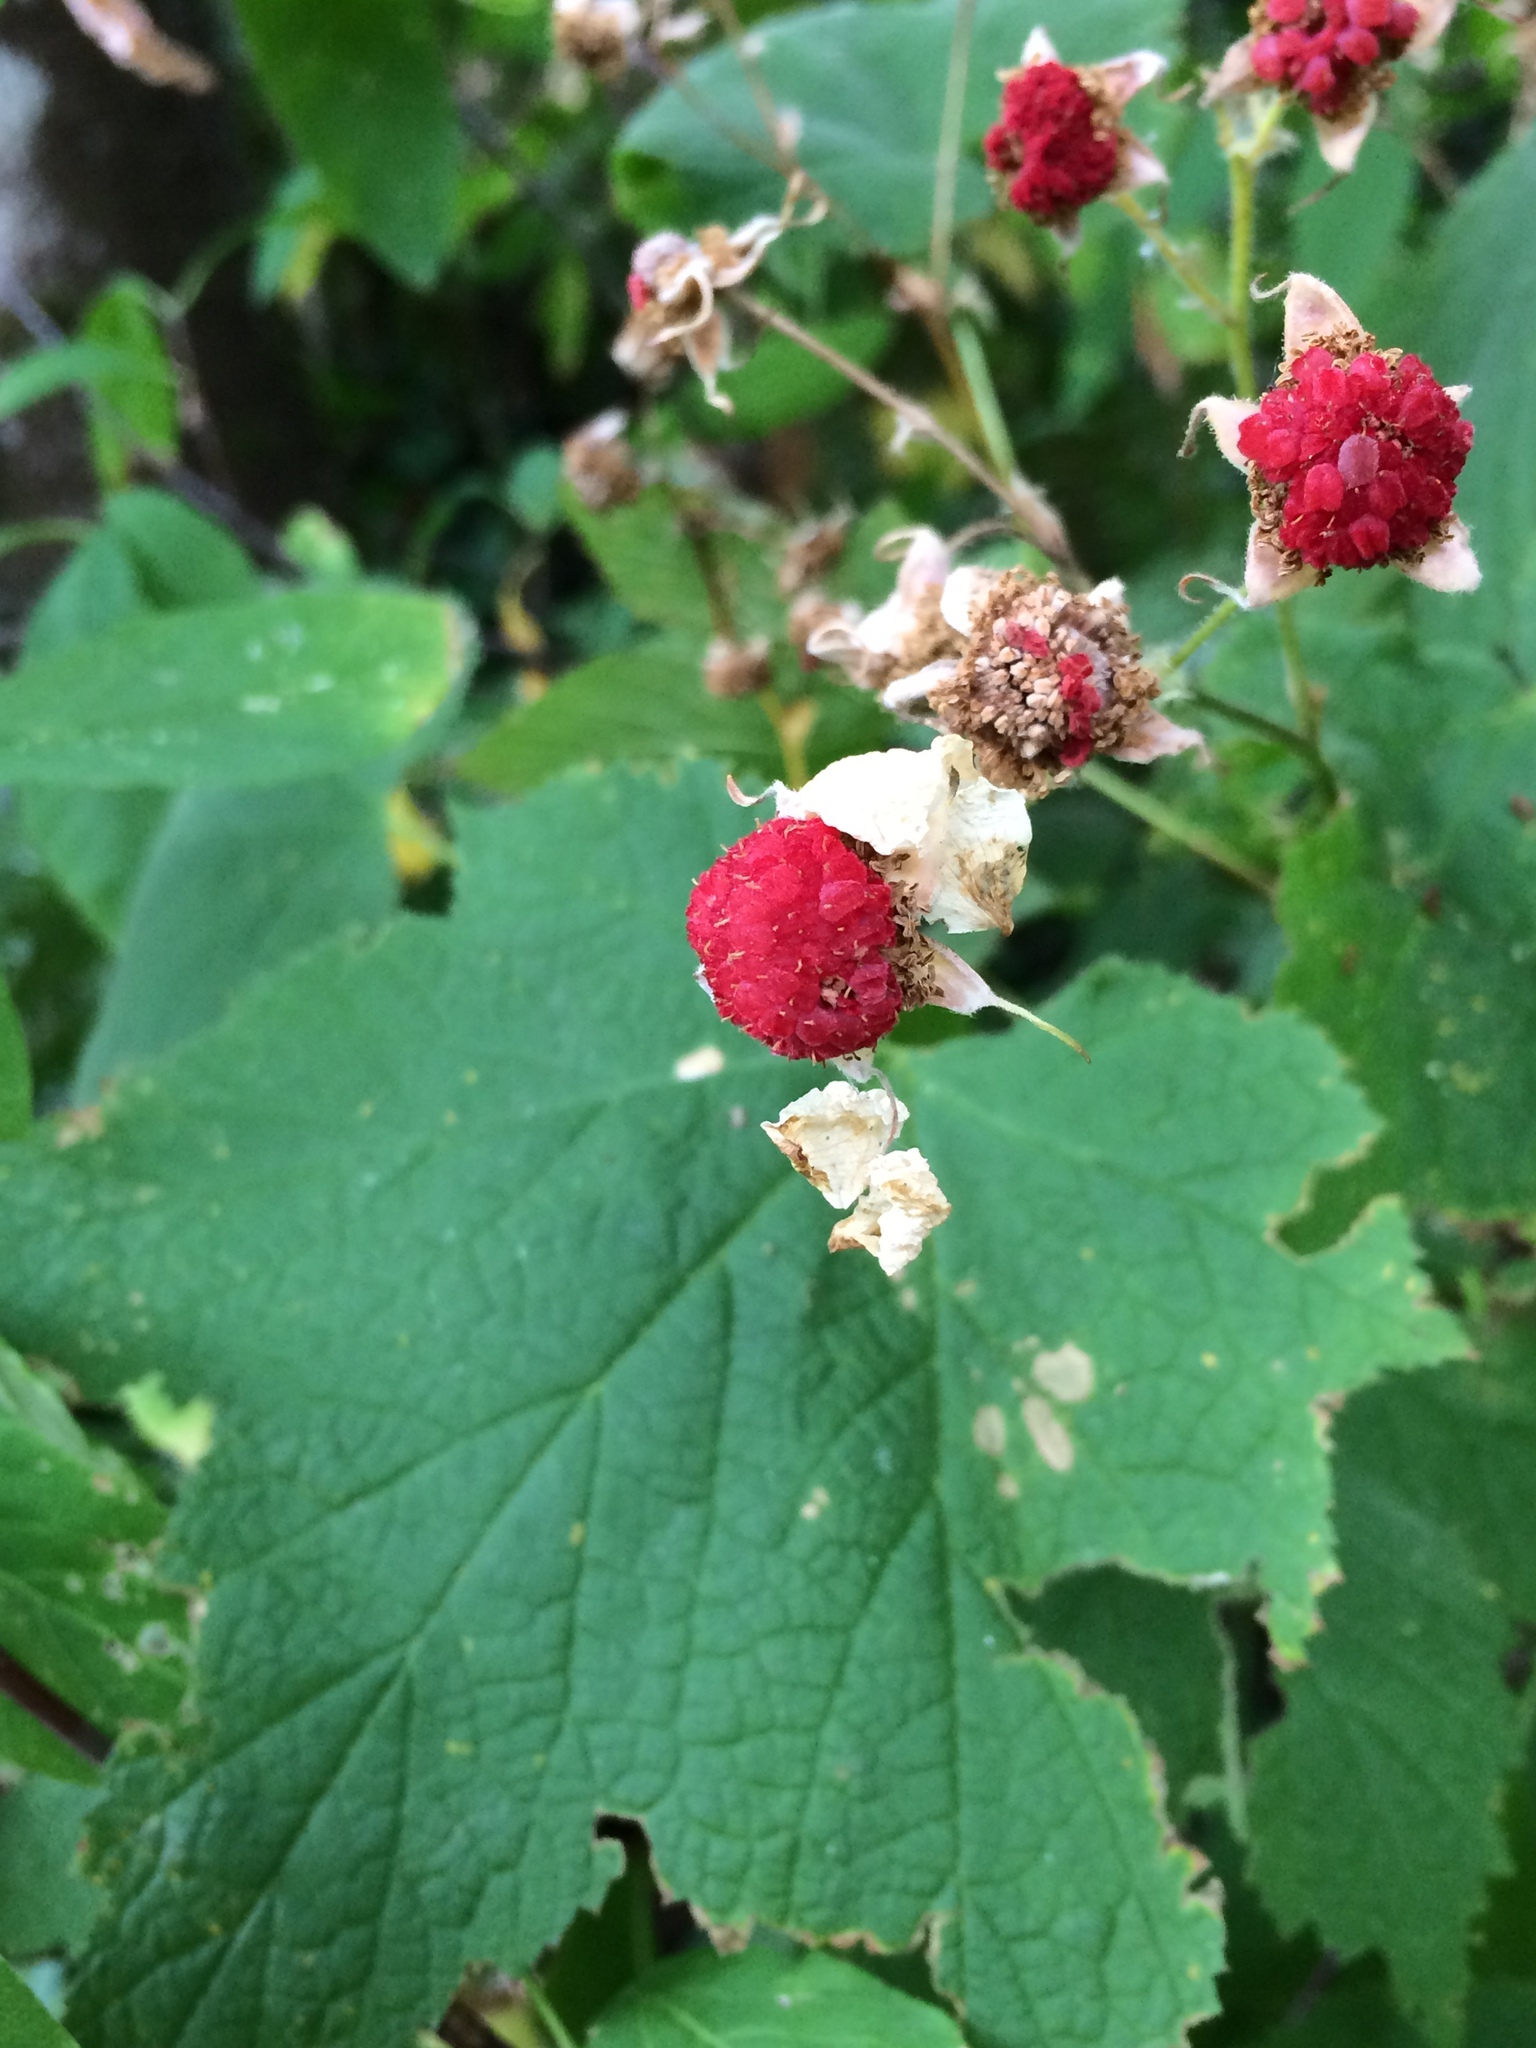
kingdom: Plantae
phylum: Tracheophyta
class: Magnoliopsida
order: Rosales
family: Rosaceae
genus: Rubus
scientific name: Rubus parviflorus
